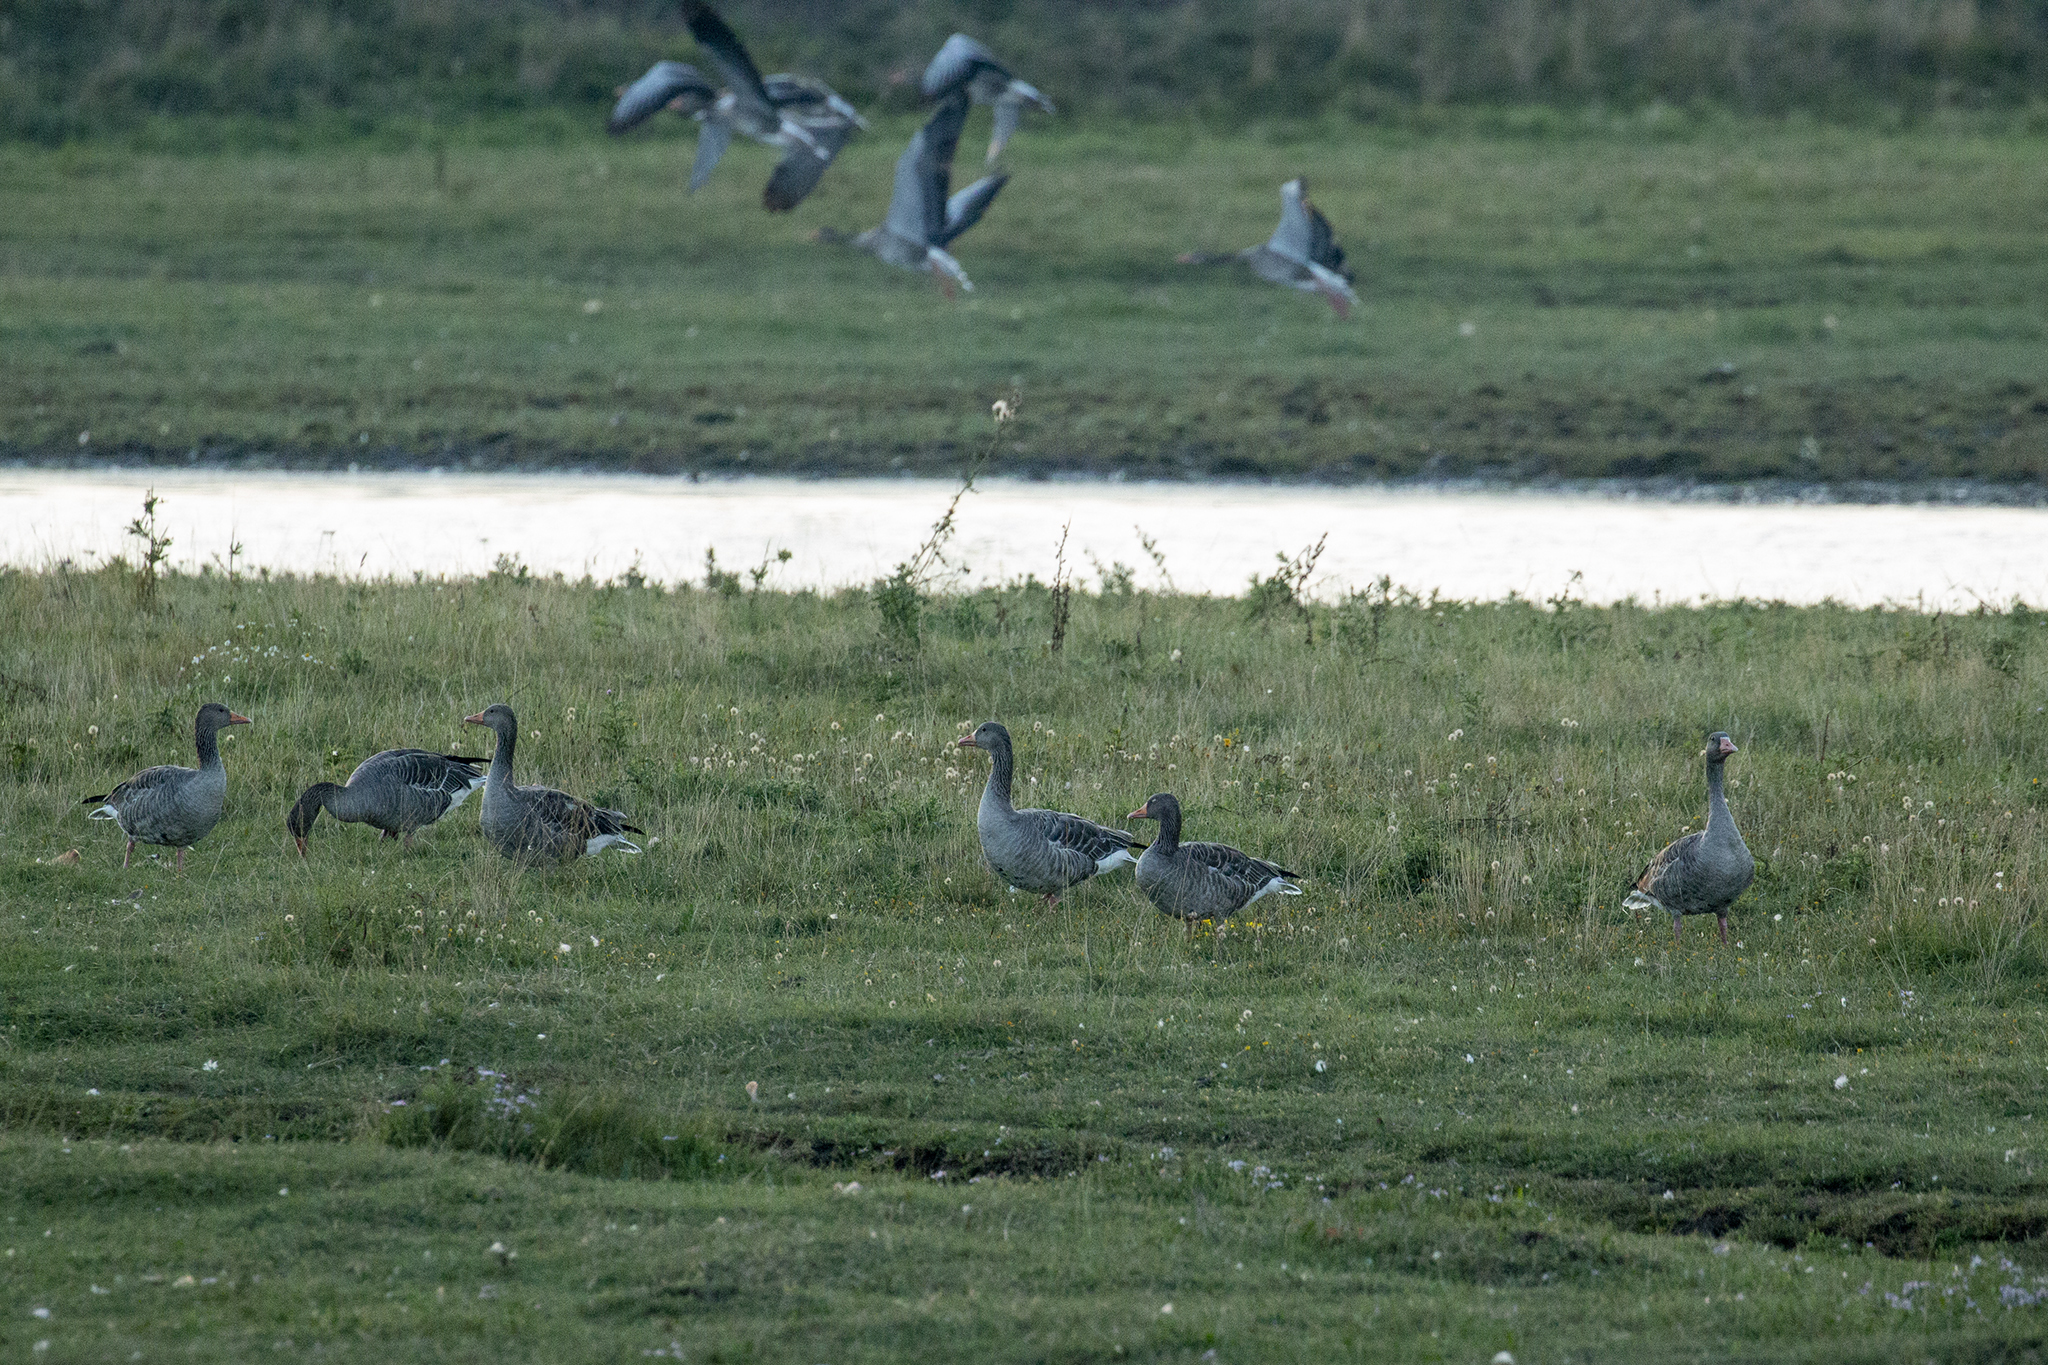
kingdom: Animalia
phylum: Chordata
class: Aves
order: Anseriformes
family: Anatidae
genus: Anser
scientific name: Anser anser
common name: Greylag goose
